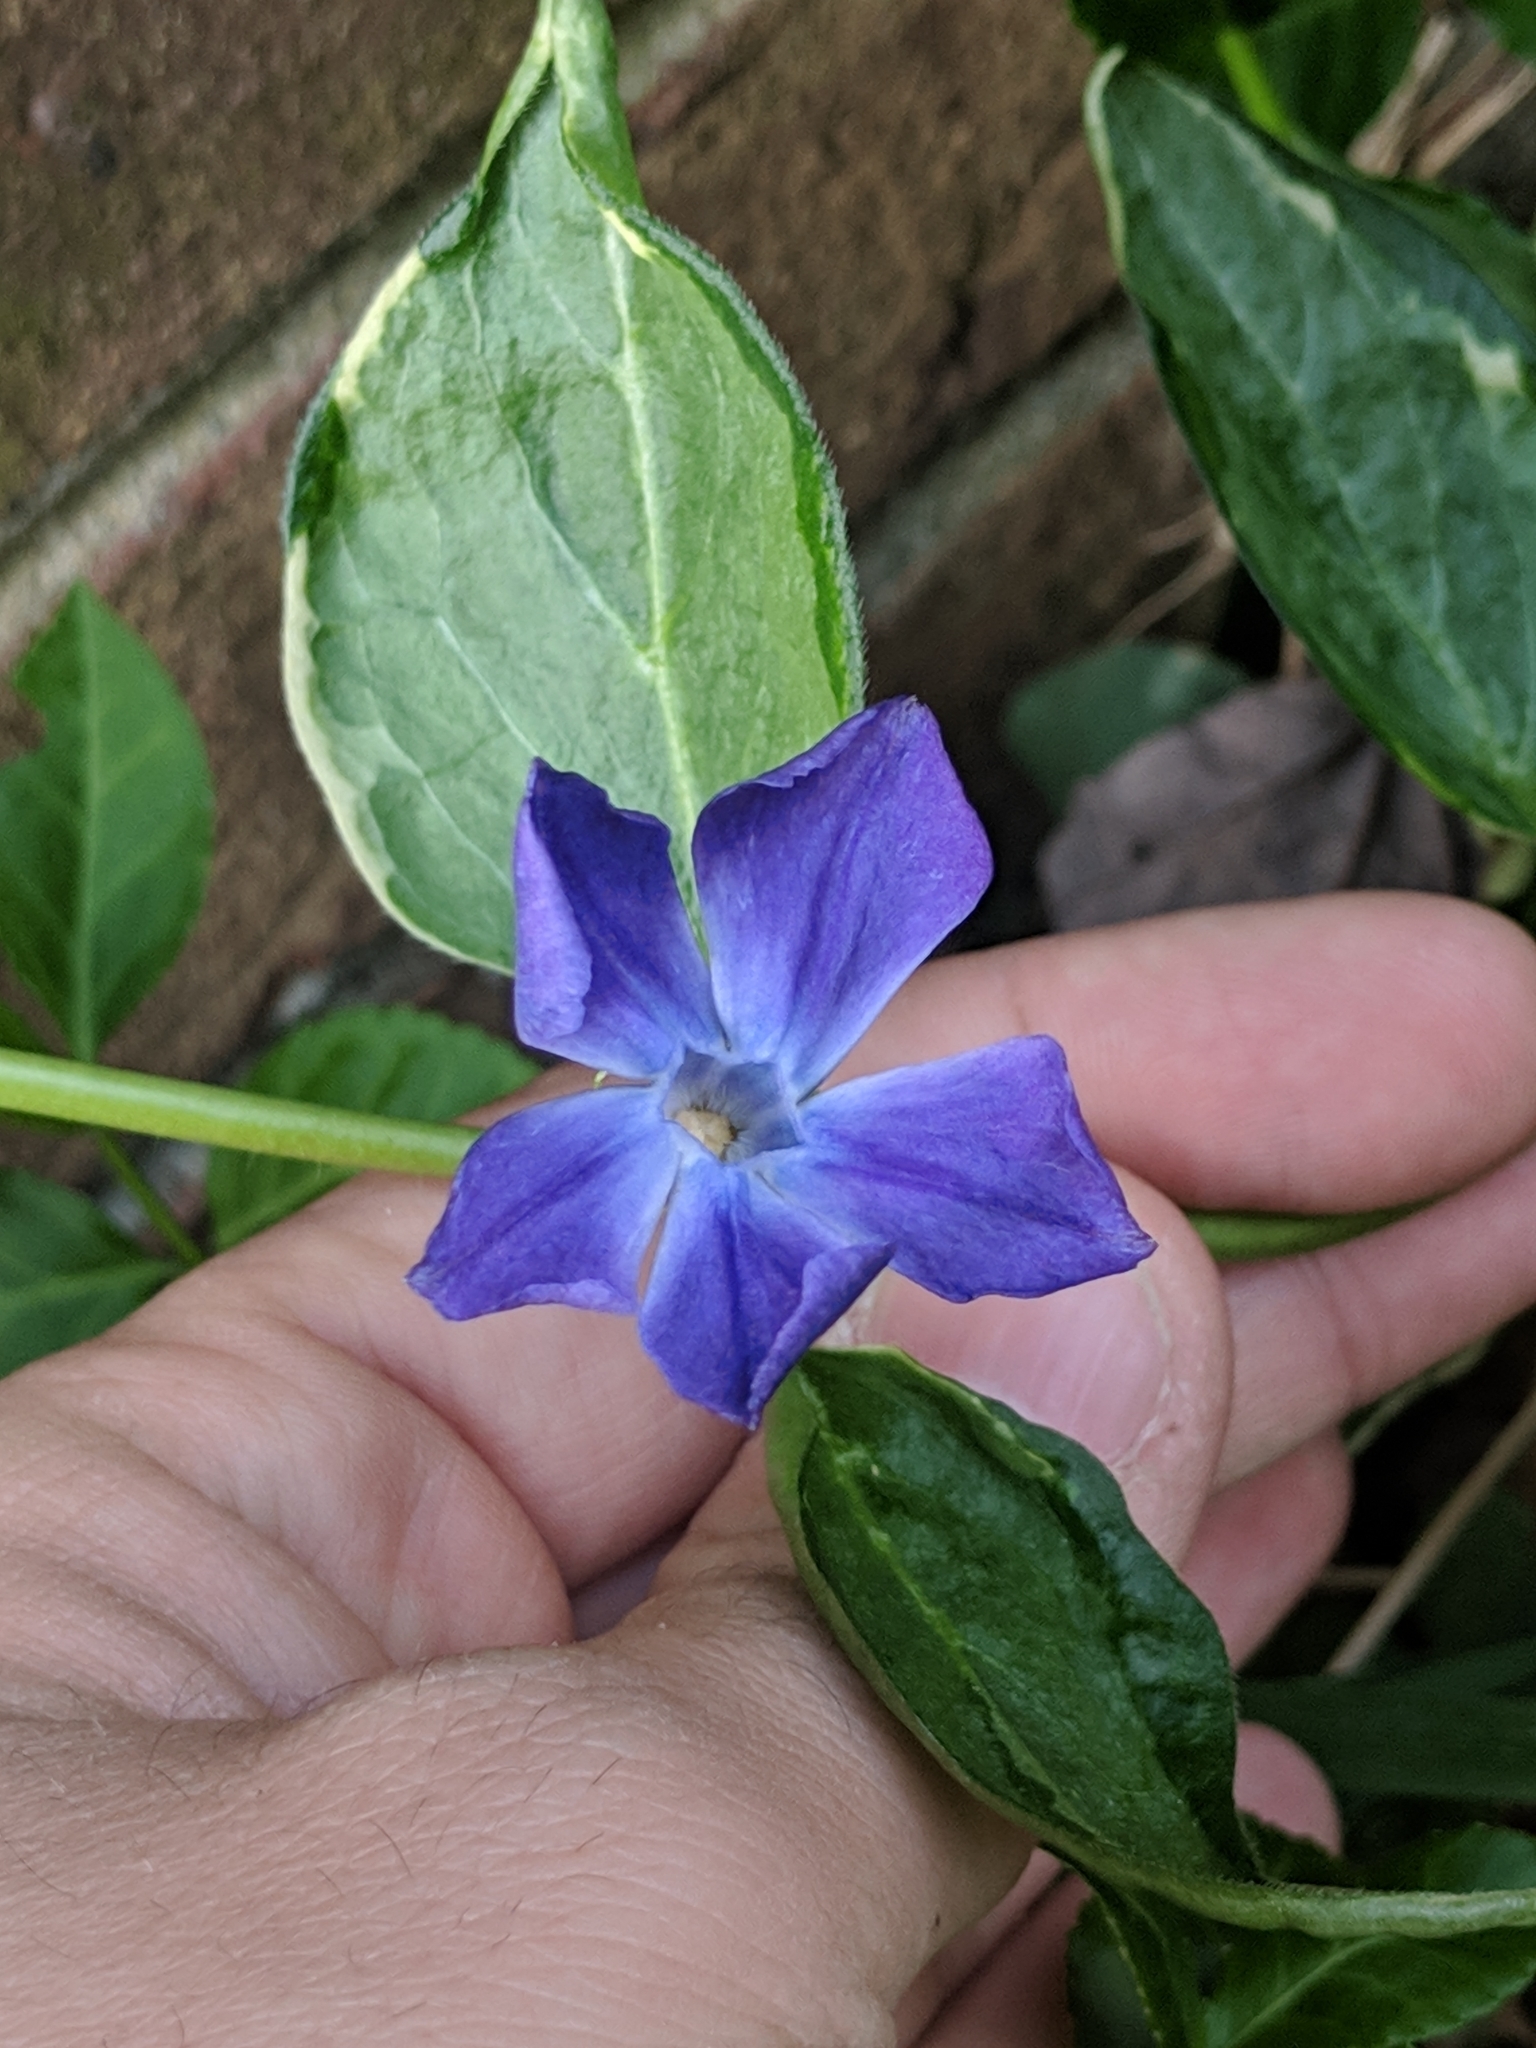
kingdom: Plantae
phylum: Tracheophyta
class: Magnoliopsida
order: Gentianales
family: Apocynaceae
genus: Vinca
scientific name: Vinca minor
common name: Lesser periwinkle
